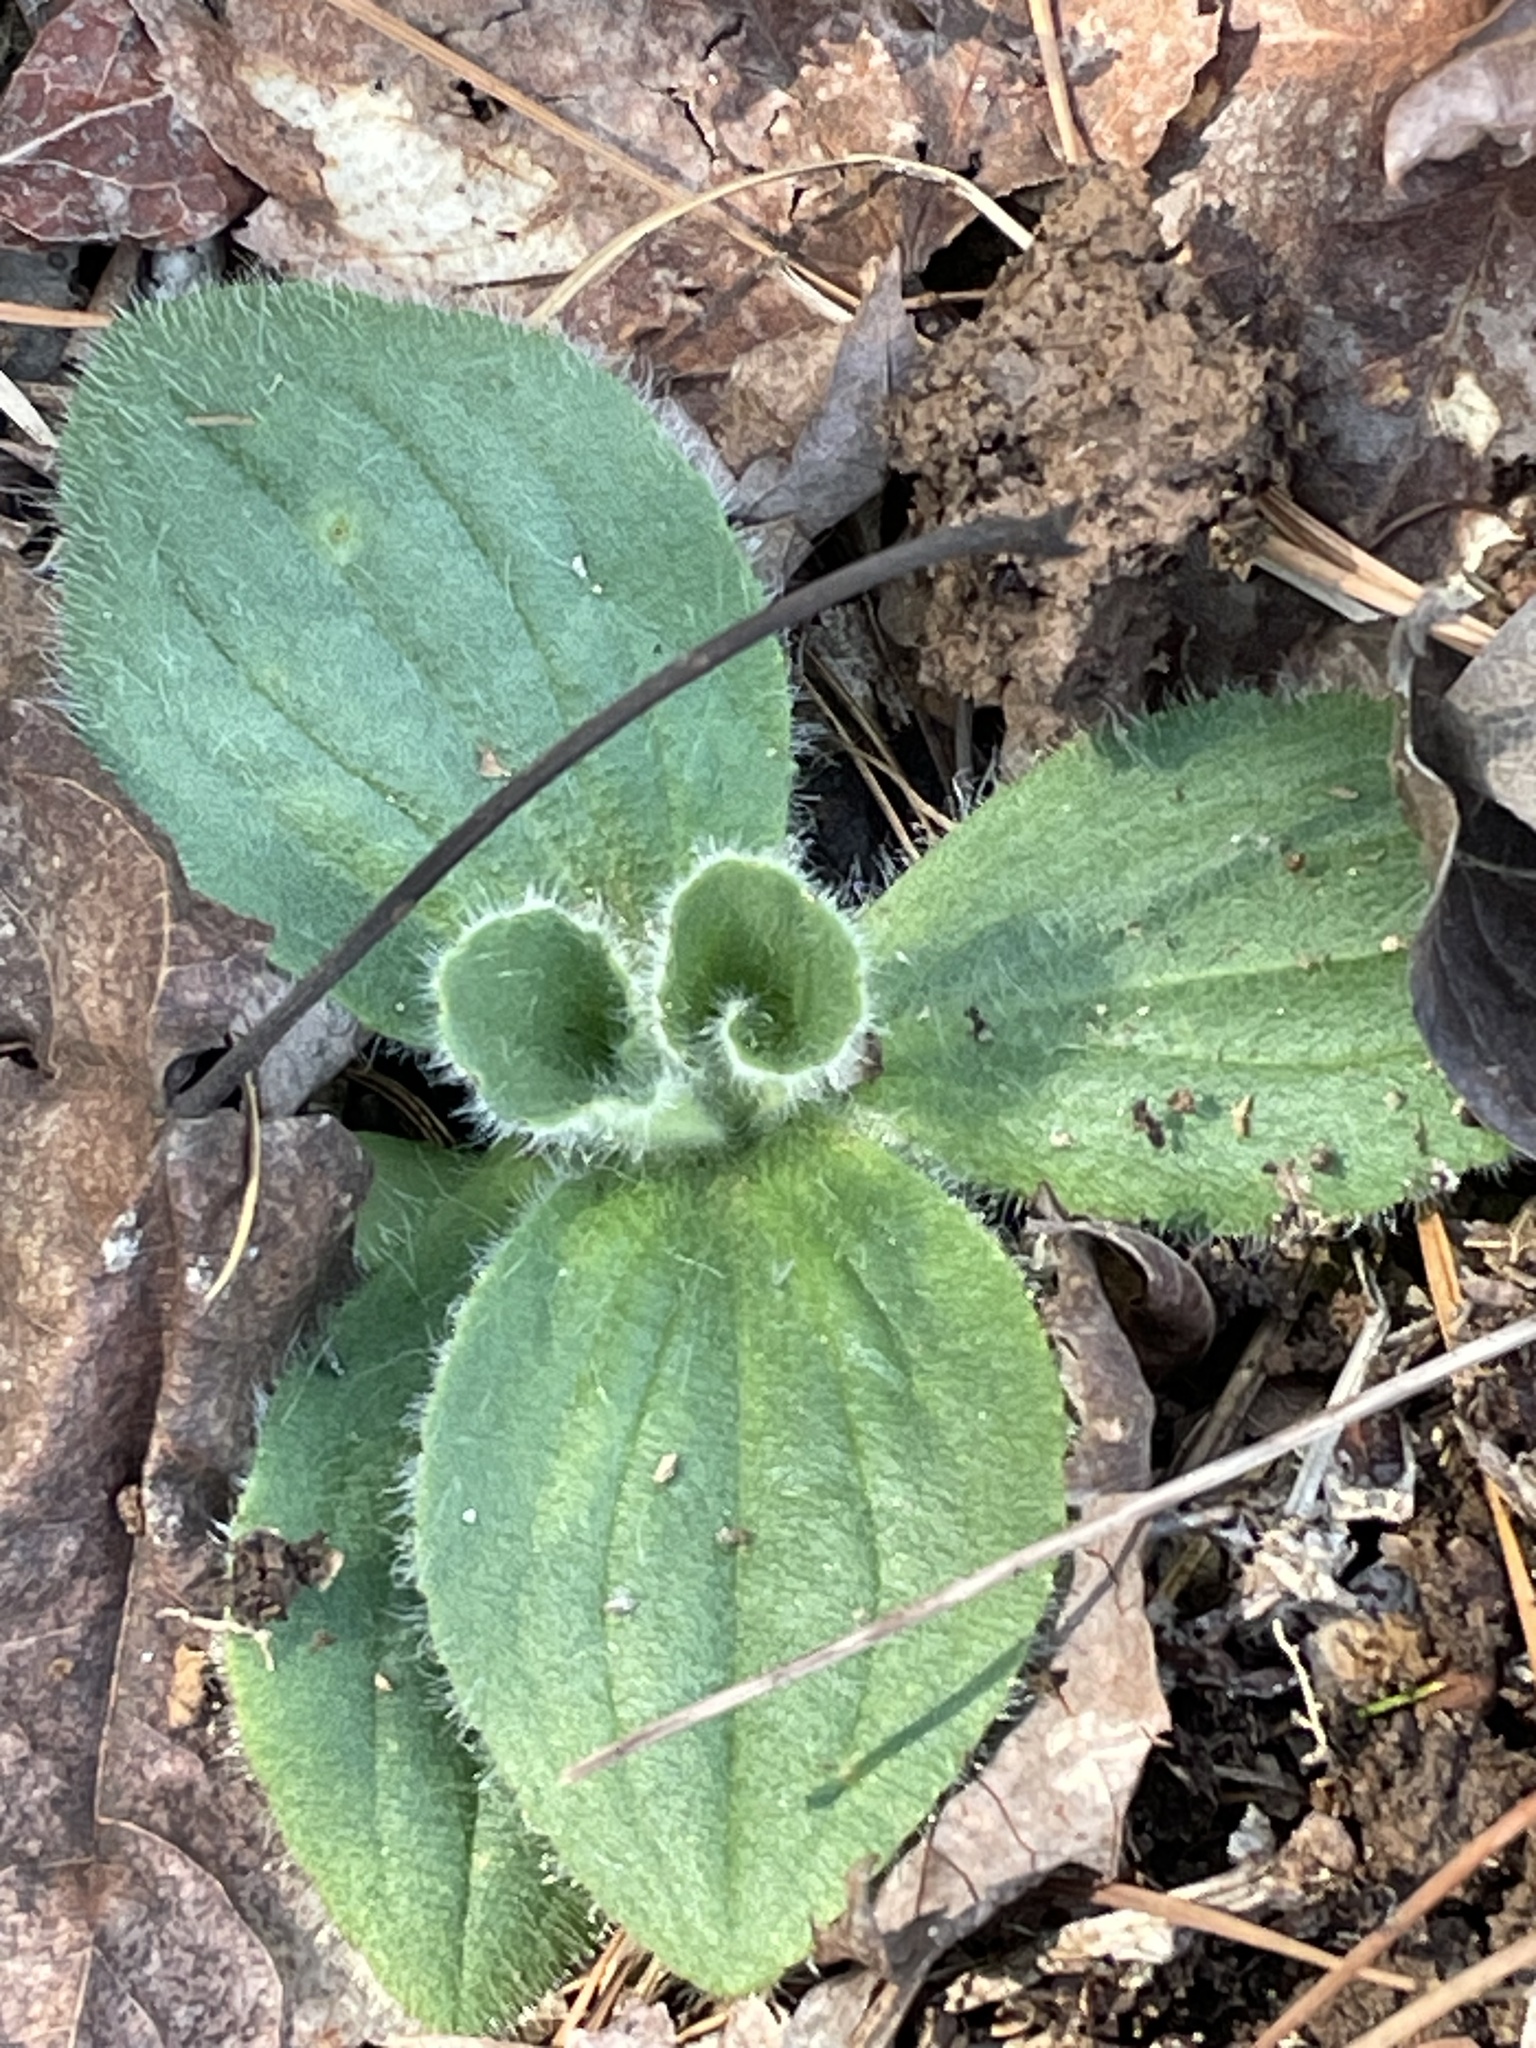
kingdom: Plantae
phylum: Tracheophyta
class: Magnoliopsida
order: Asterales
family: Asteraceae
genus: Arnica
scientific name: Arnica acaulis
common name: Common leopardbane
